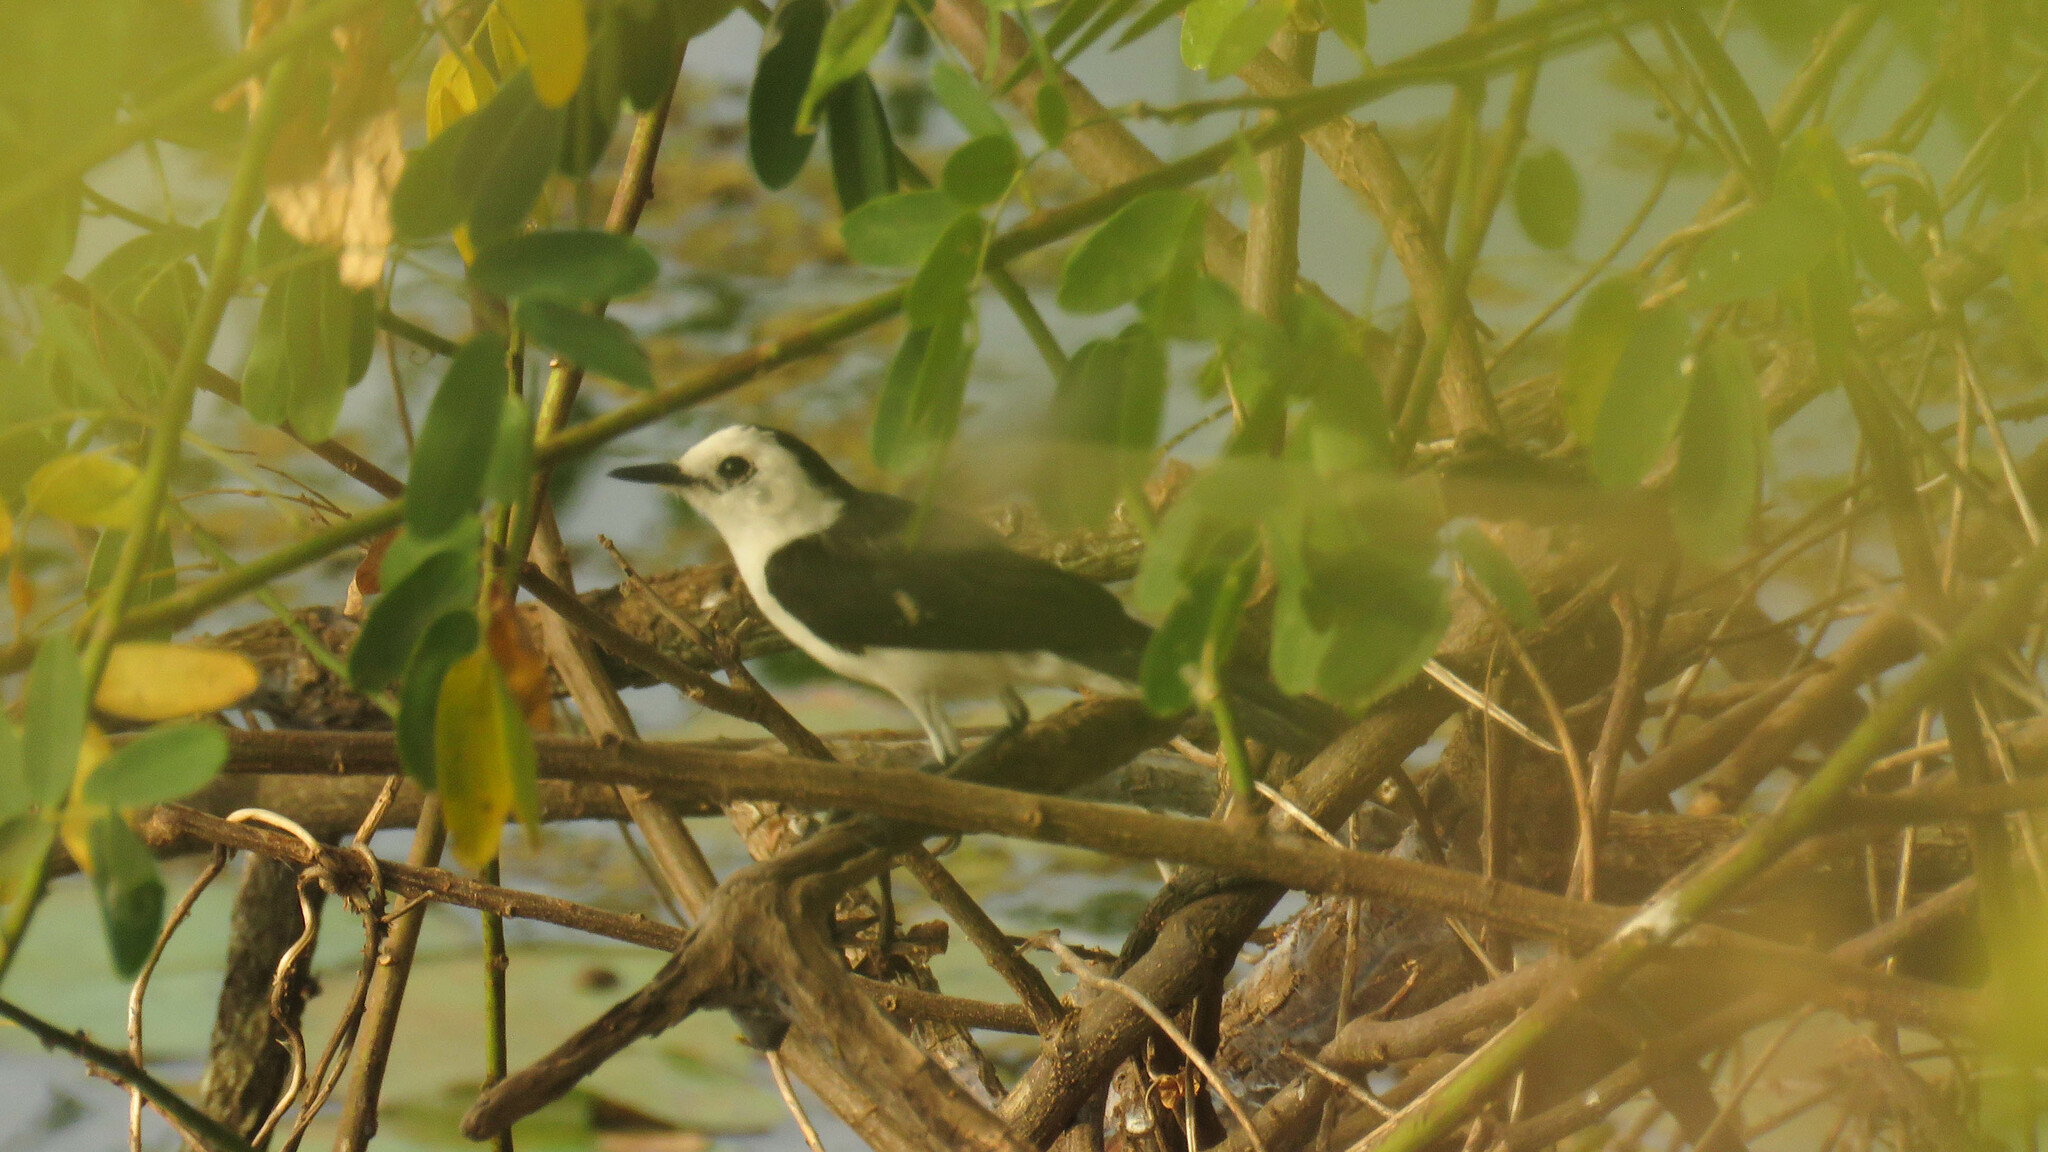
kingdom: Animalia
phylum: Chordata
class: Aves
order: Passeriformes
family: Tyrannidae
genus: Fluvicola
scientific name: Fluvicola pica
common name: Pied water-tyrant
